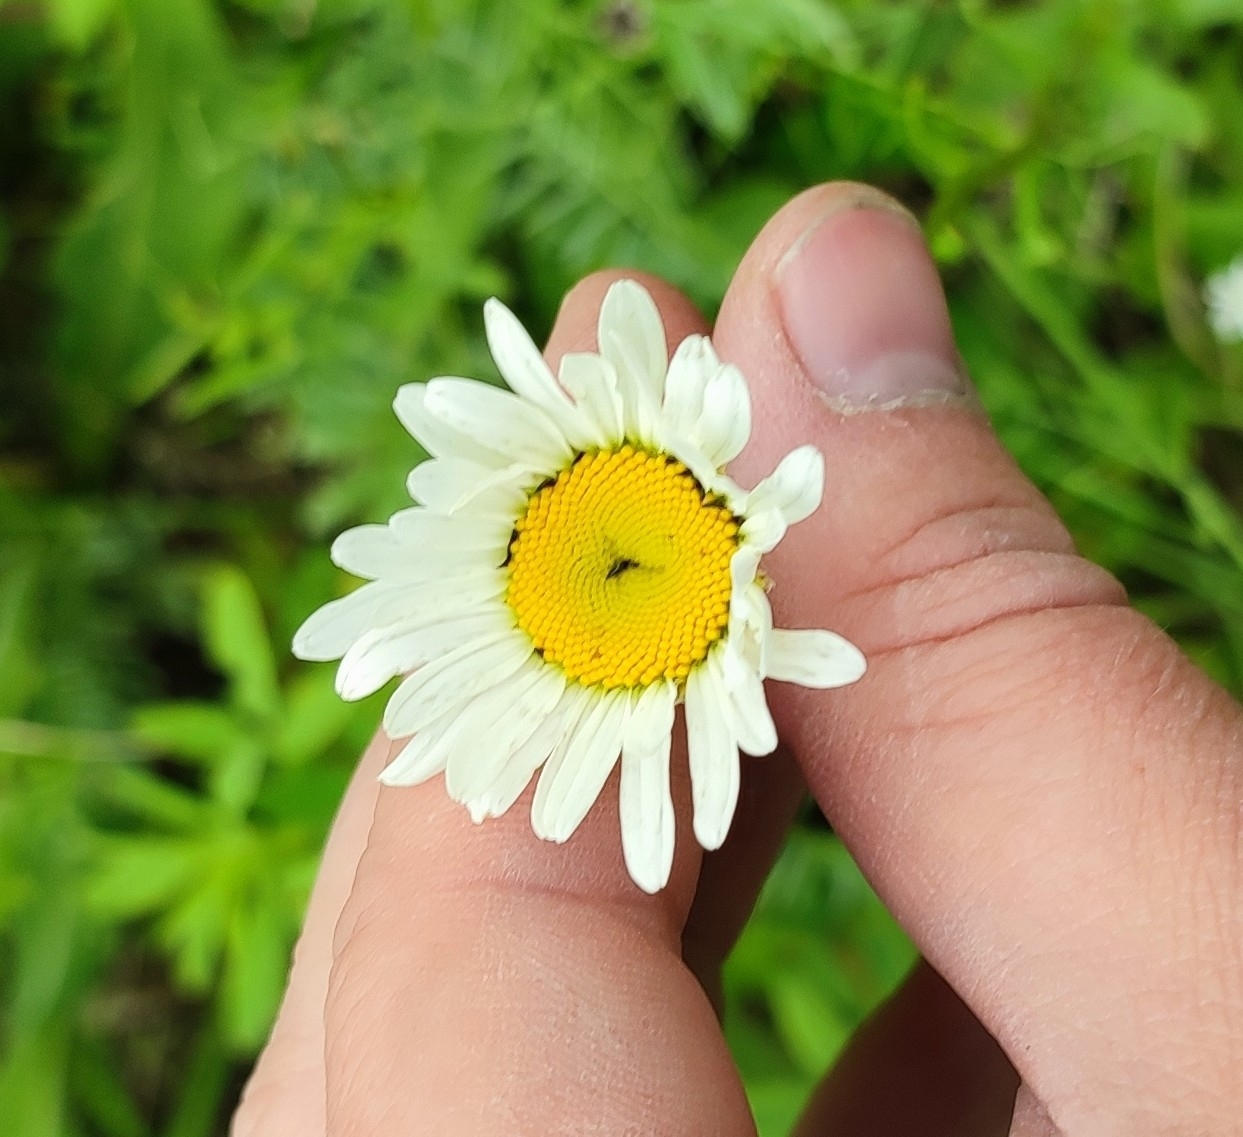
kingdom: Plantae
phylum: Tracheophyta
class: Magnoliopsida
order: Asterales
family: Asteraceae
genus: Leucanthemum
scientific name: Leucanthemum ircutianum
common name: Daisy
